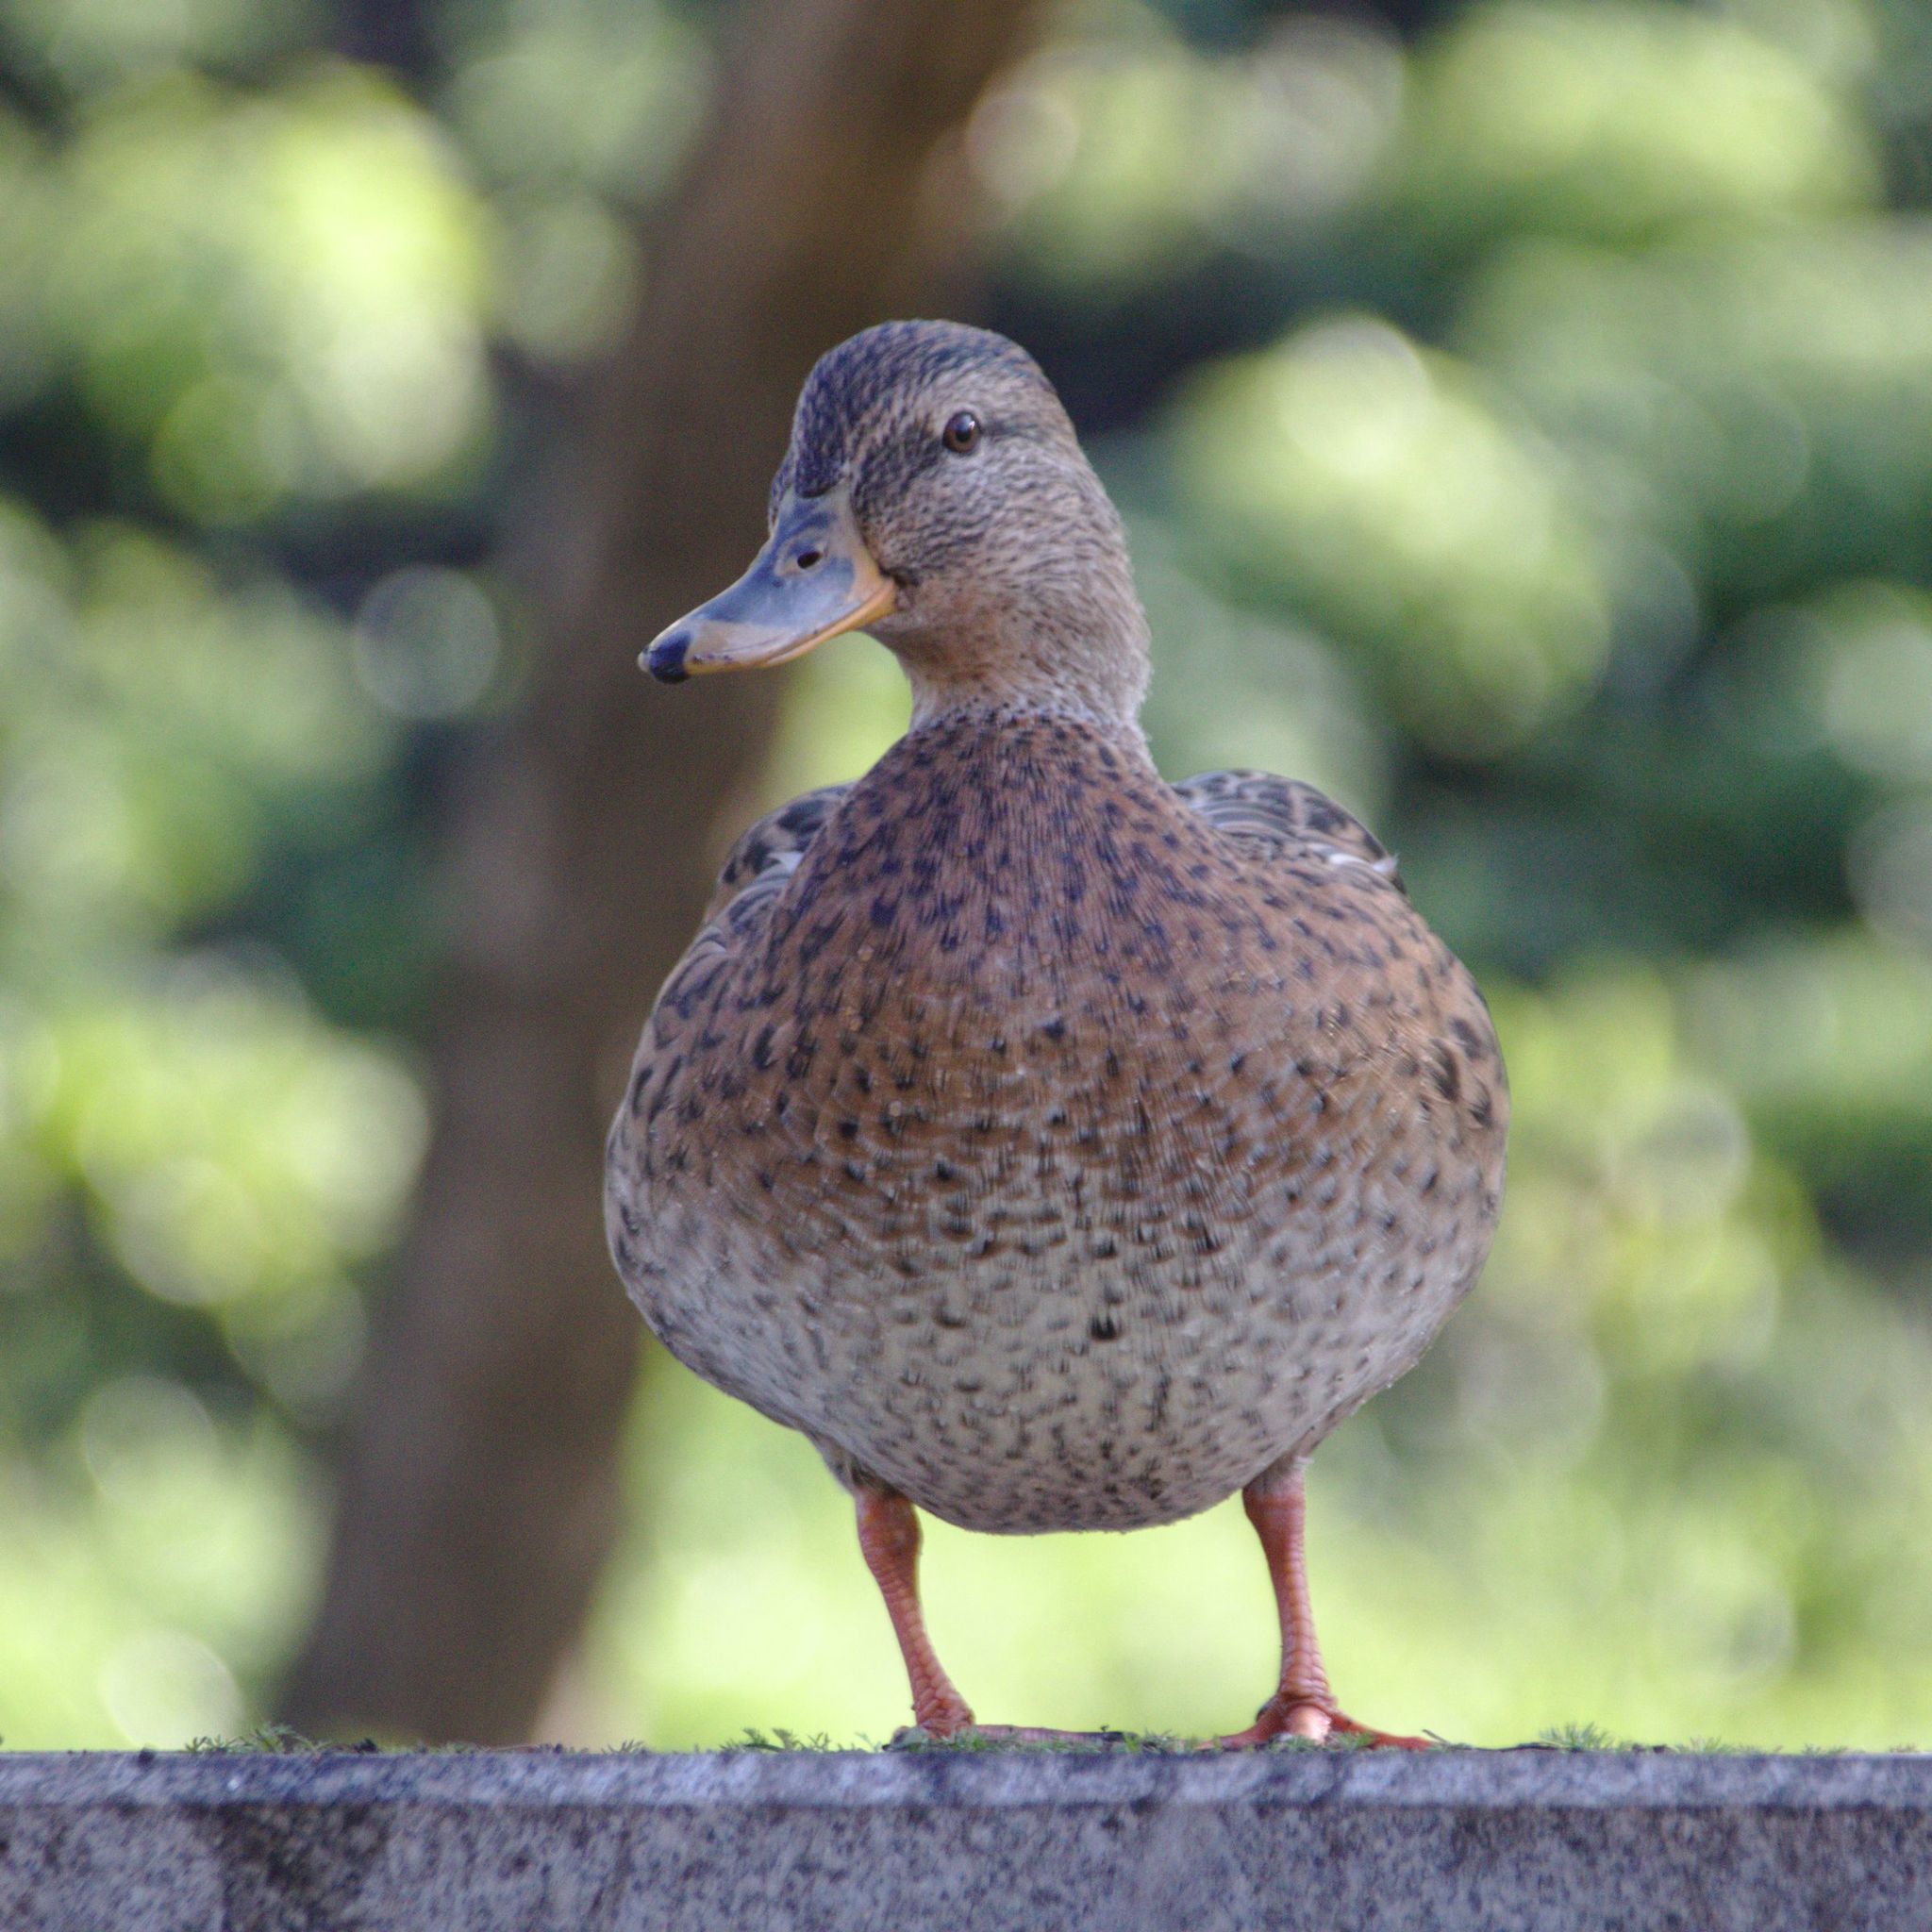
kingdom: Animalia
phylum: Chordata
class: Aves
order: Anseriformes
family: Anatidae
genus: Anas
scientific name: Anas platyrhynchos
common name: Mallard
